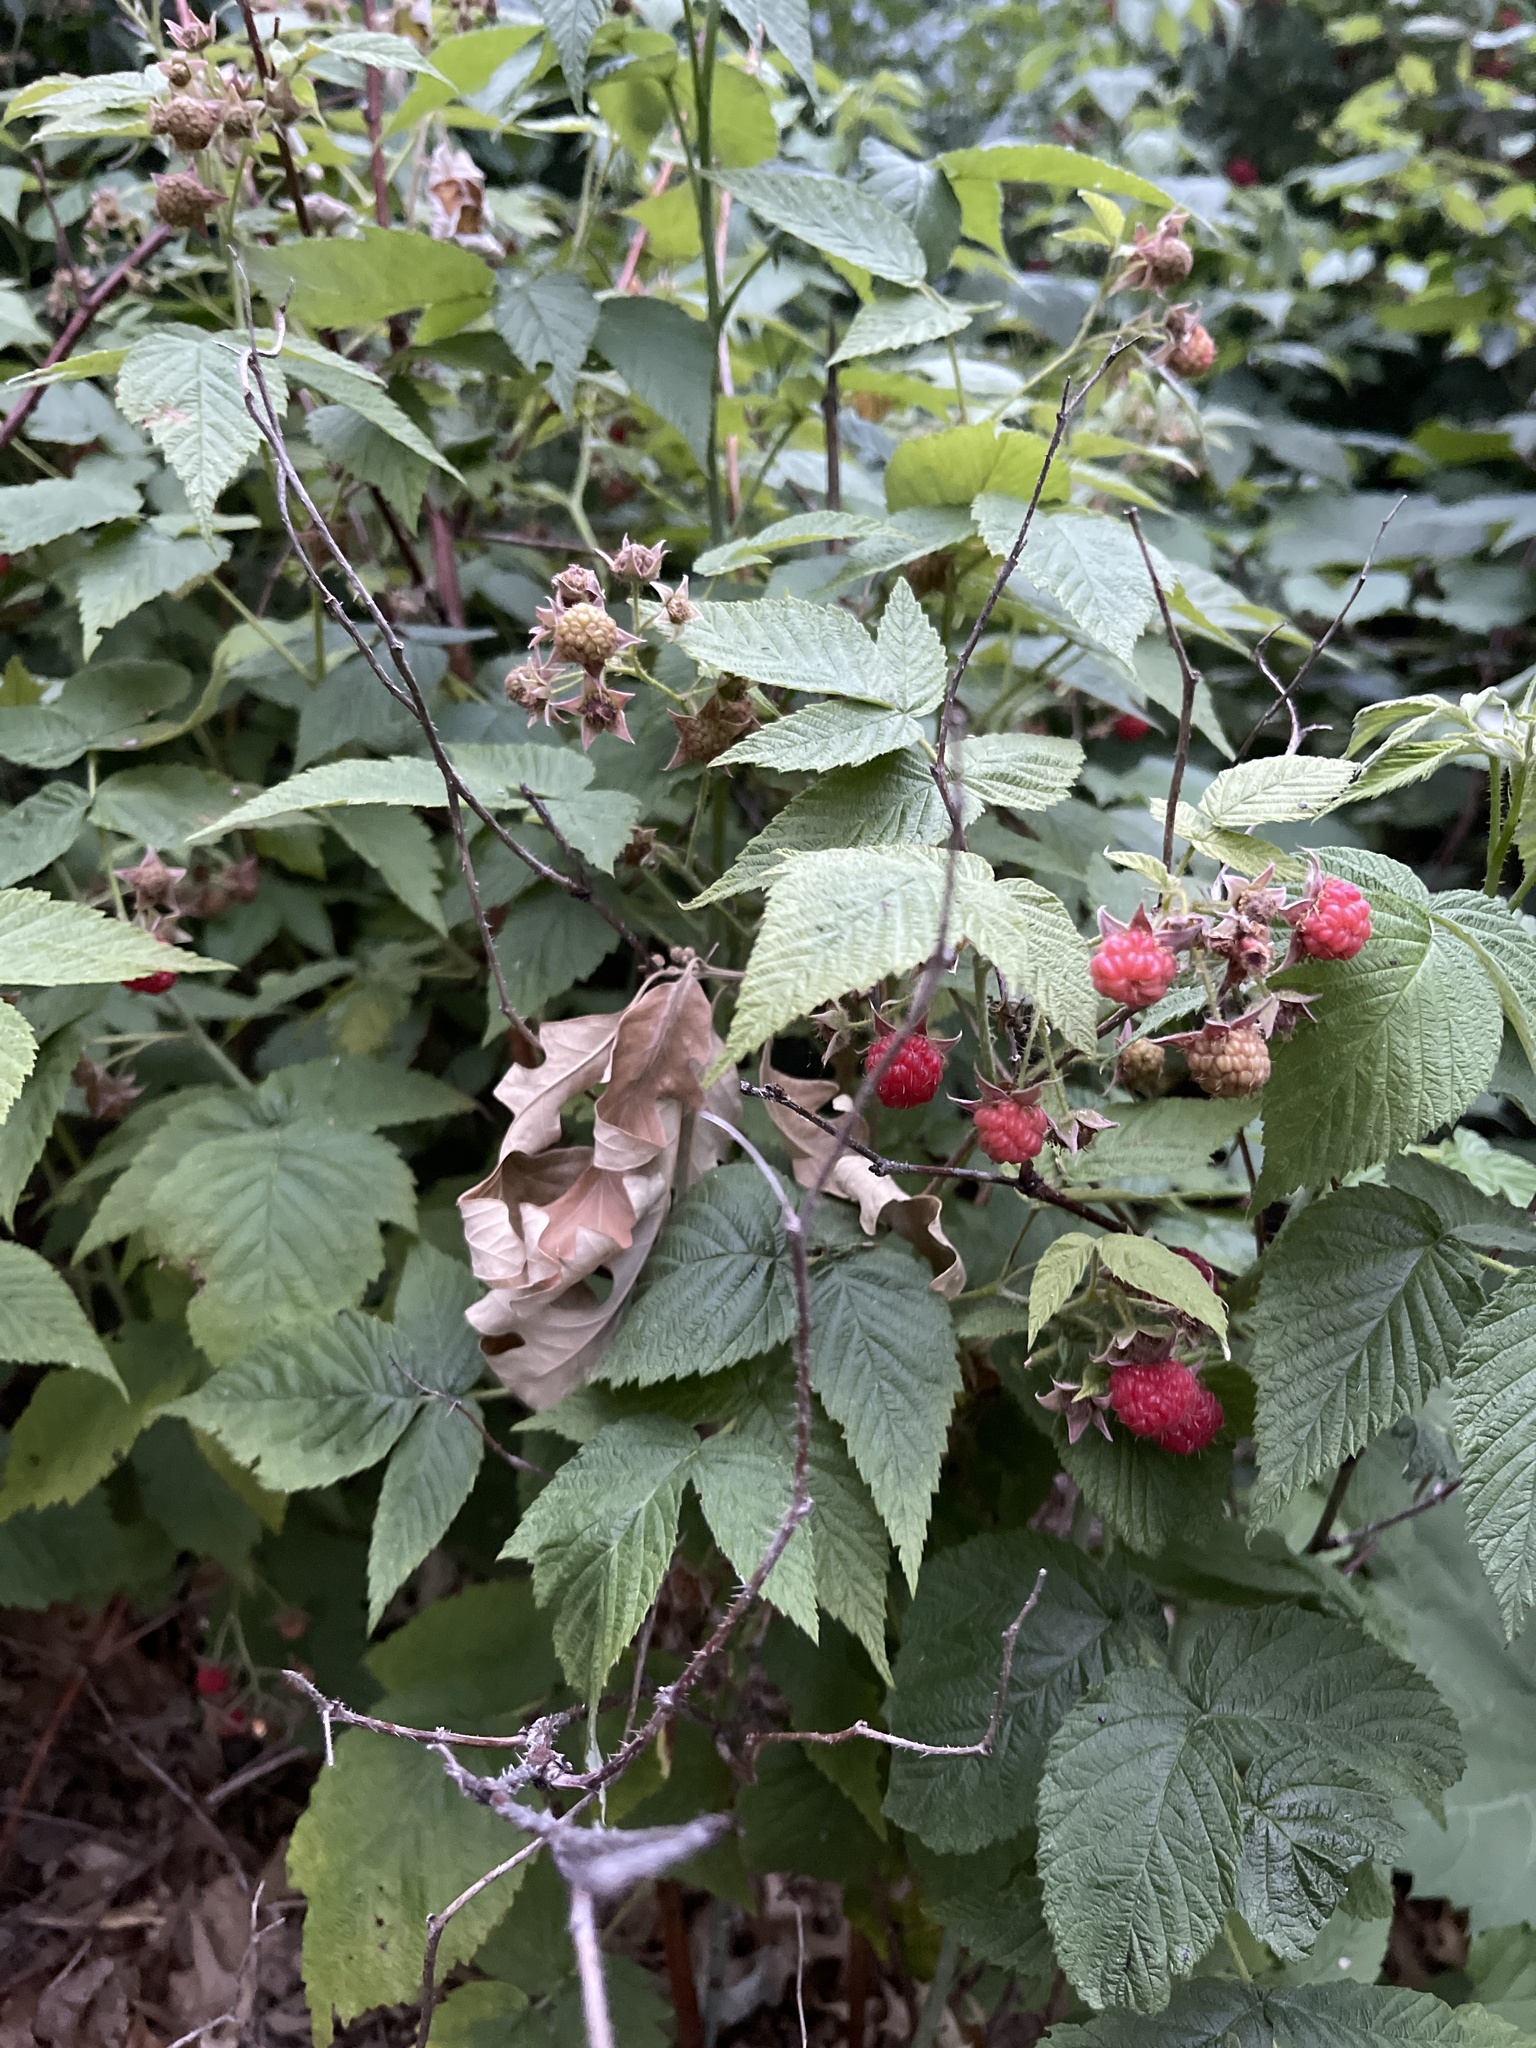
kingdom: Plantae
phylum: Tracheophyta
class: Magnoliopsida
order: Rosales
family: Rosaceae
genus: Rubus
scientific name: Rubus idaeus
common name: Raspberry
